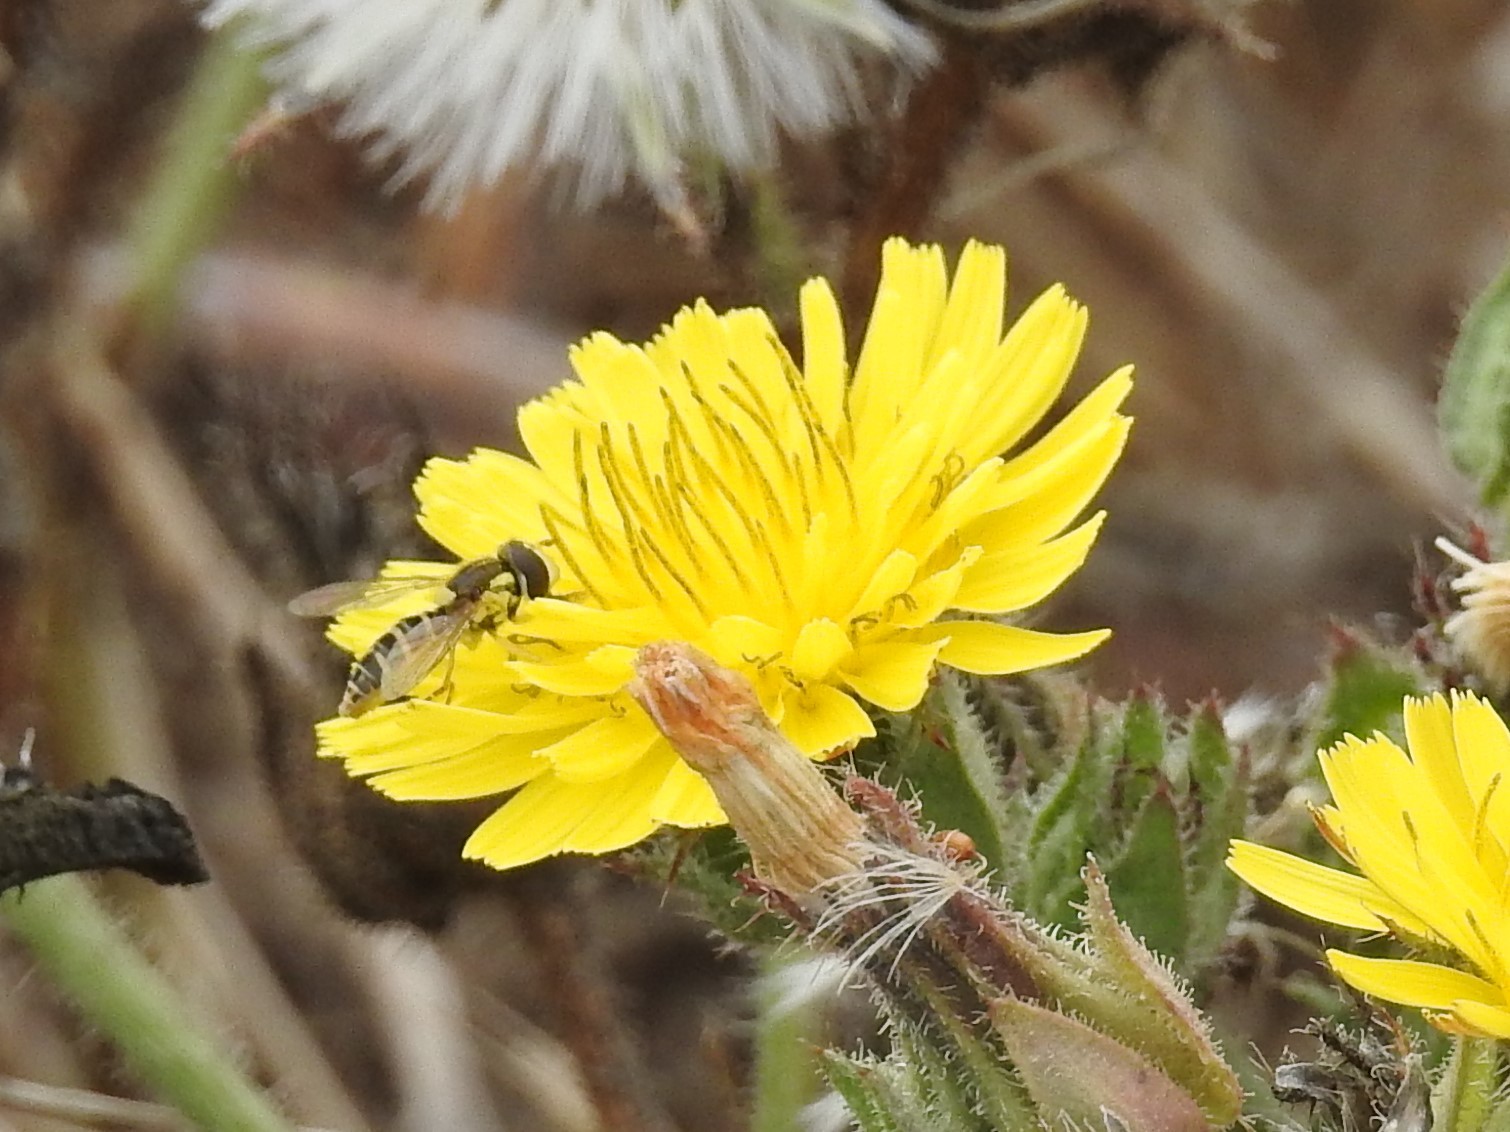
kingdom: Animalia
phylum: Arthropoda
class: Insecta
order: Diptera
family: Syrphidae
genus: Sphaerophoria
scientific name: Sphaerophoria sulphuripes
